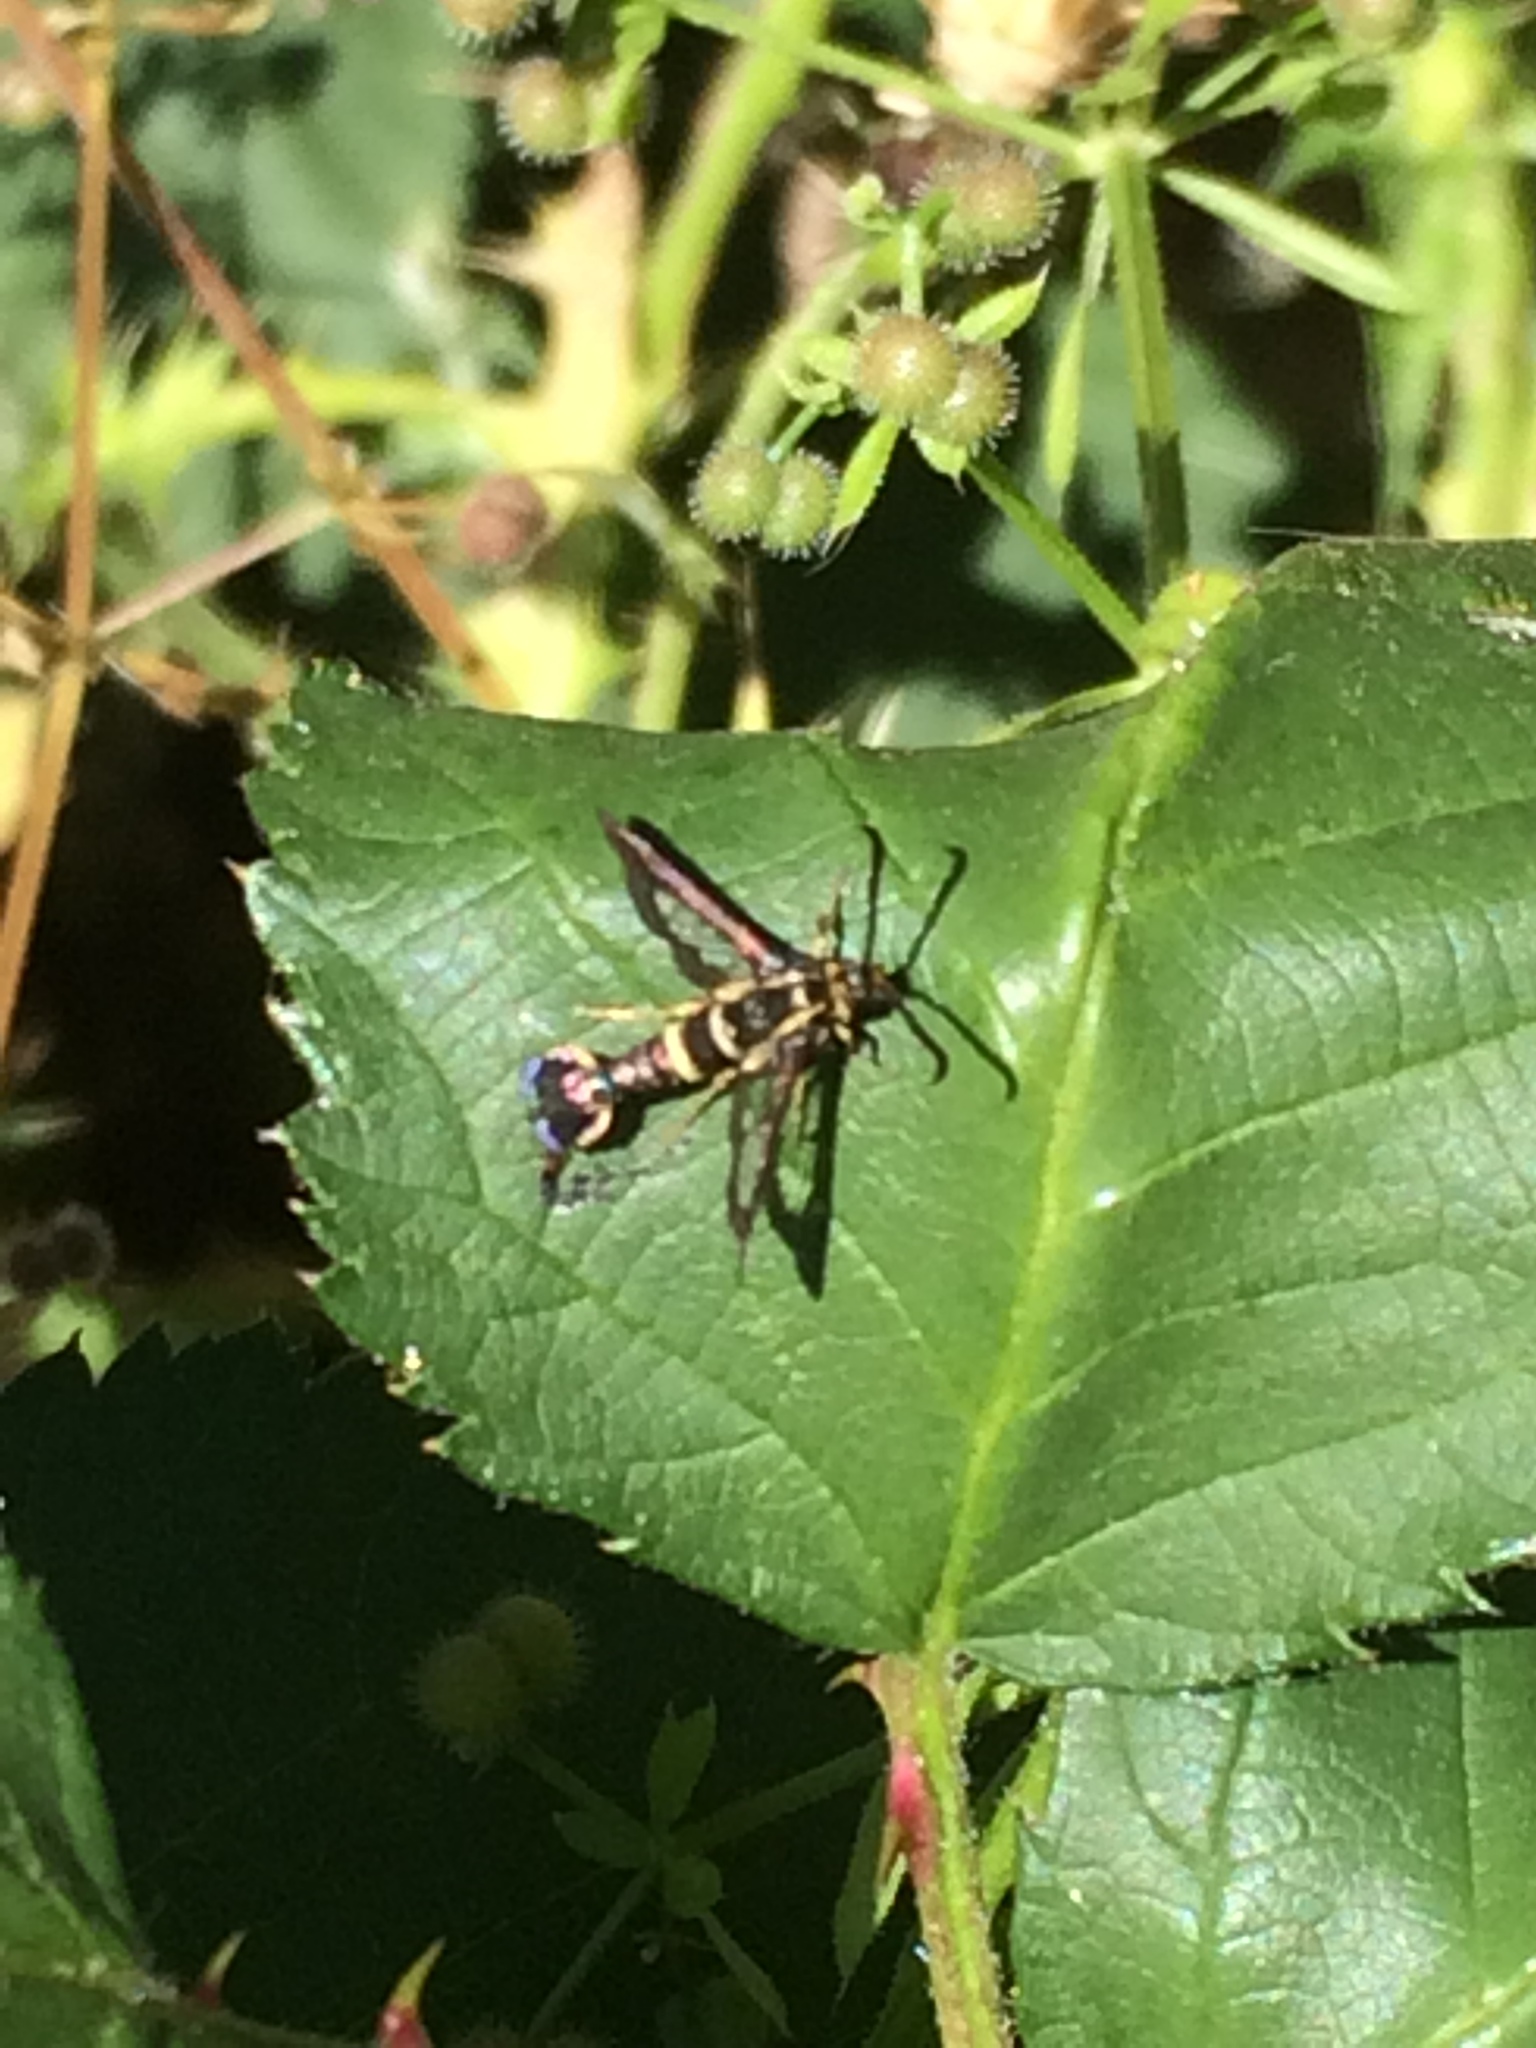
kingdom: Animalia
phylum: Arthropoda
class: Insecta
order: Lepidoptera
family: Sesiidae
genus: Synanthedon
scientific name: Synanthedon bibionipennis
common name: Strawberry crown moth
